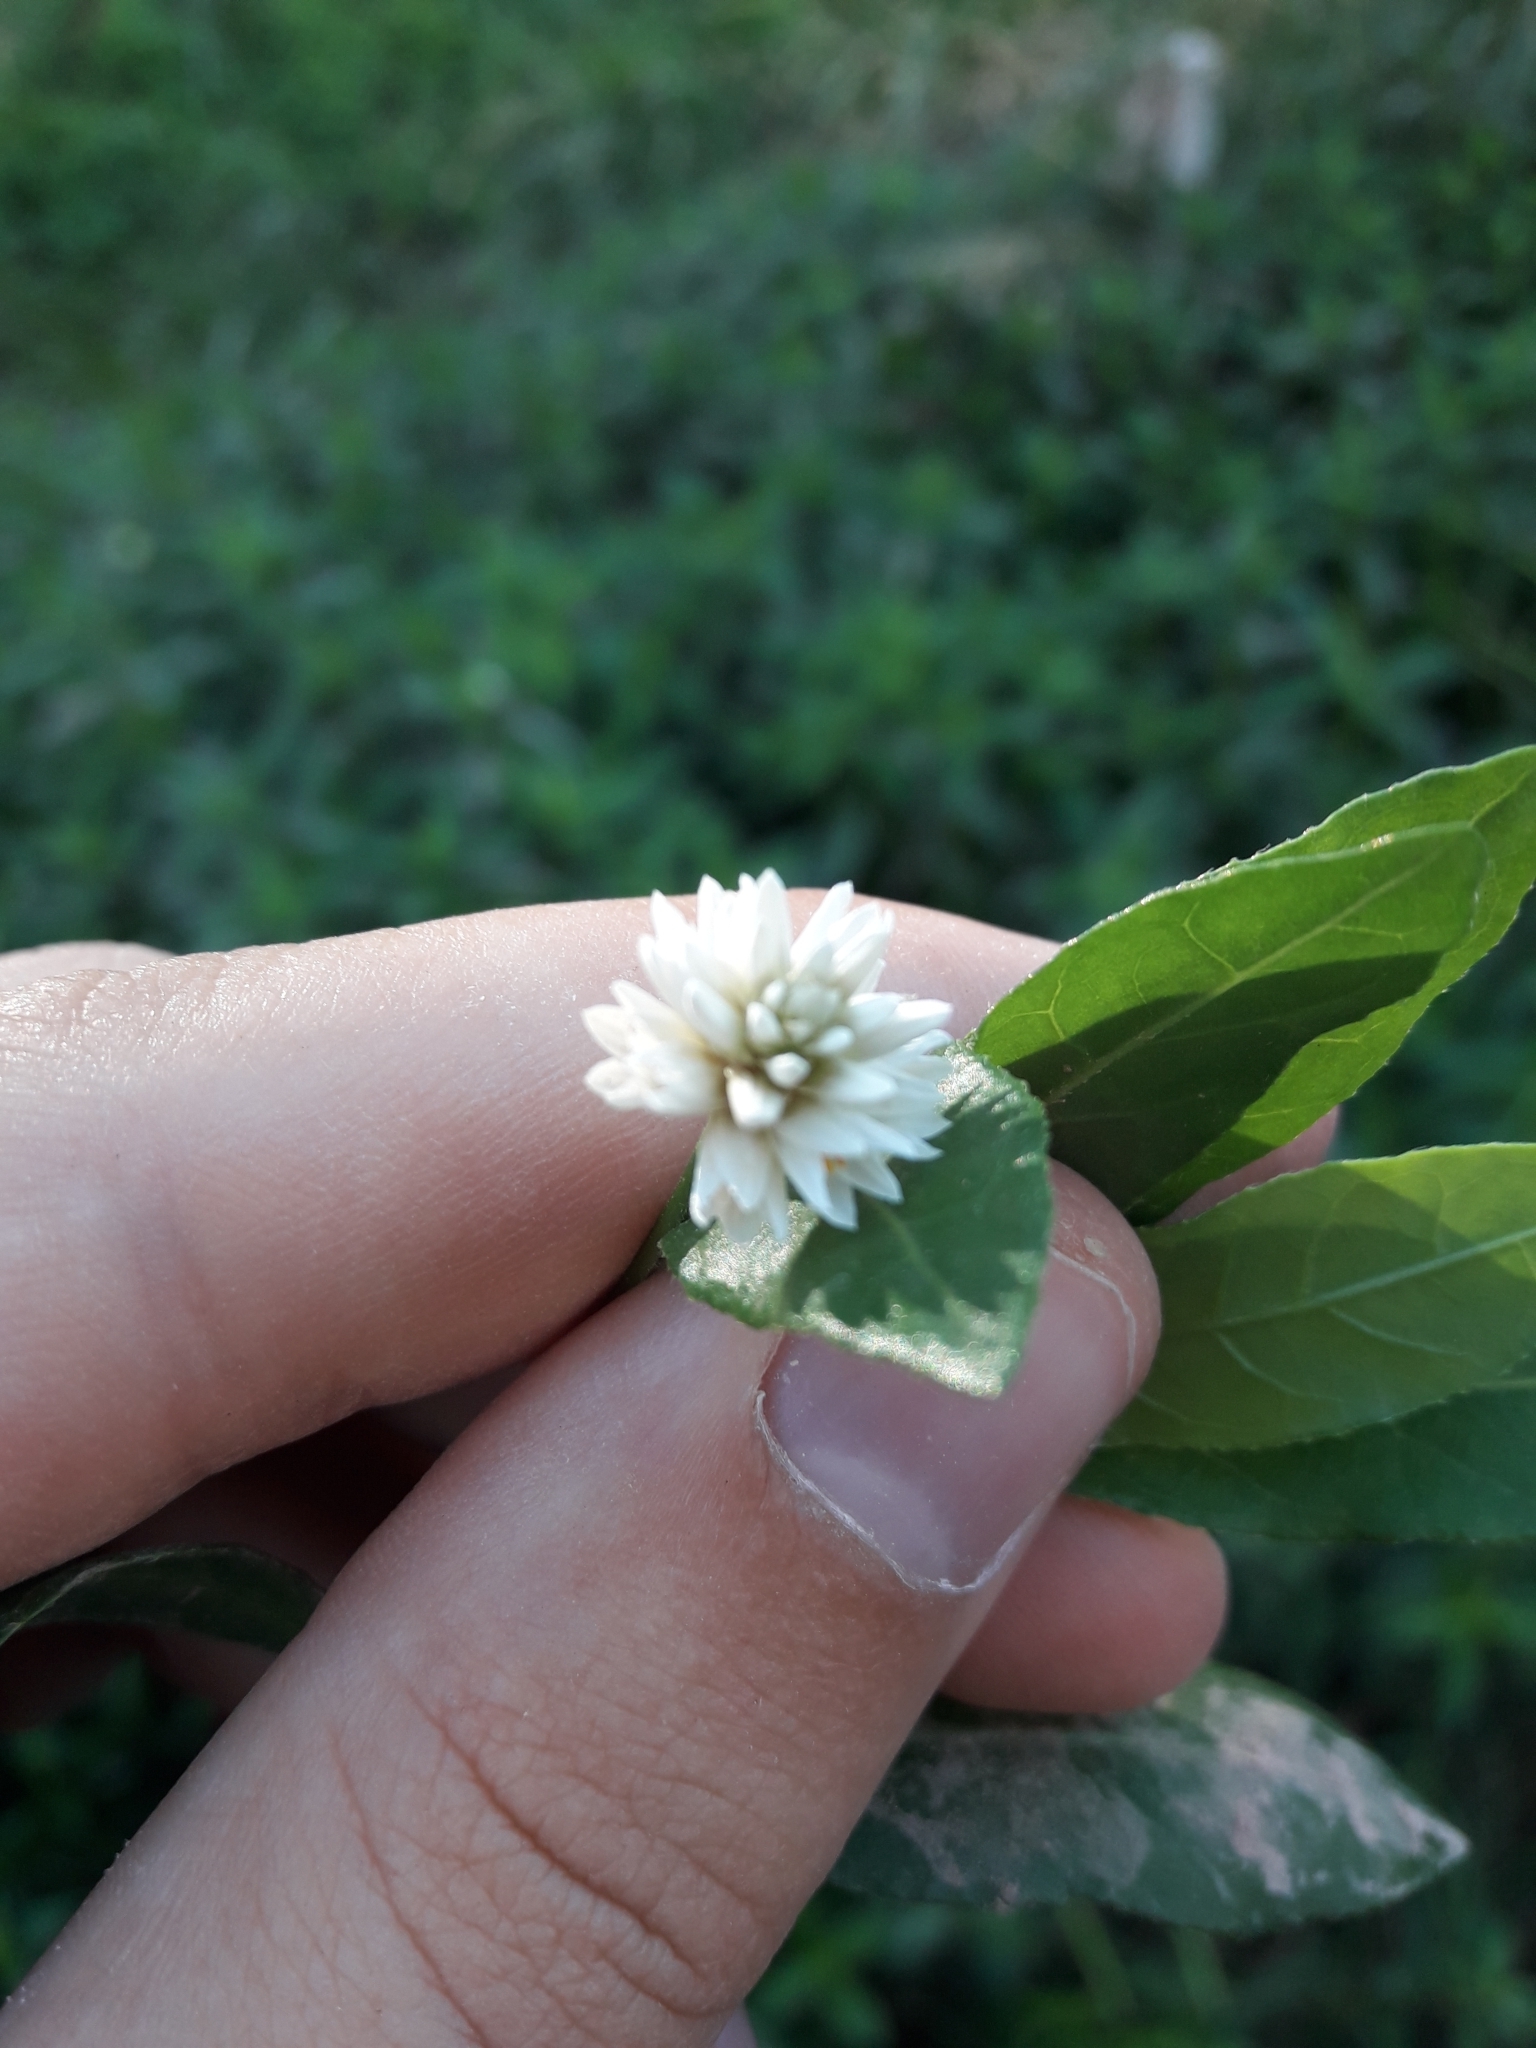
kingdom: Plantae
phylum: Tracheophyta
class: Magnoliopsida
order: Caryophyllales
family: Amaranthaceae
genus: Alternanthera
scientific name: Alternanthera philoxeroides
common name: Alligatorweed
